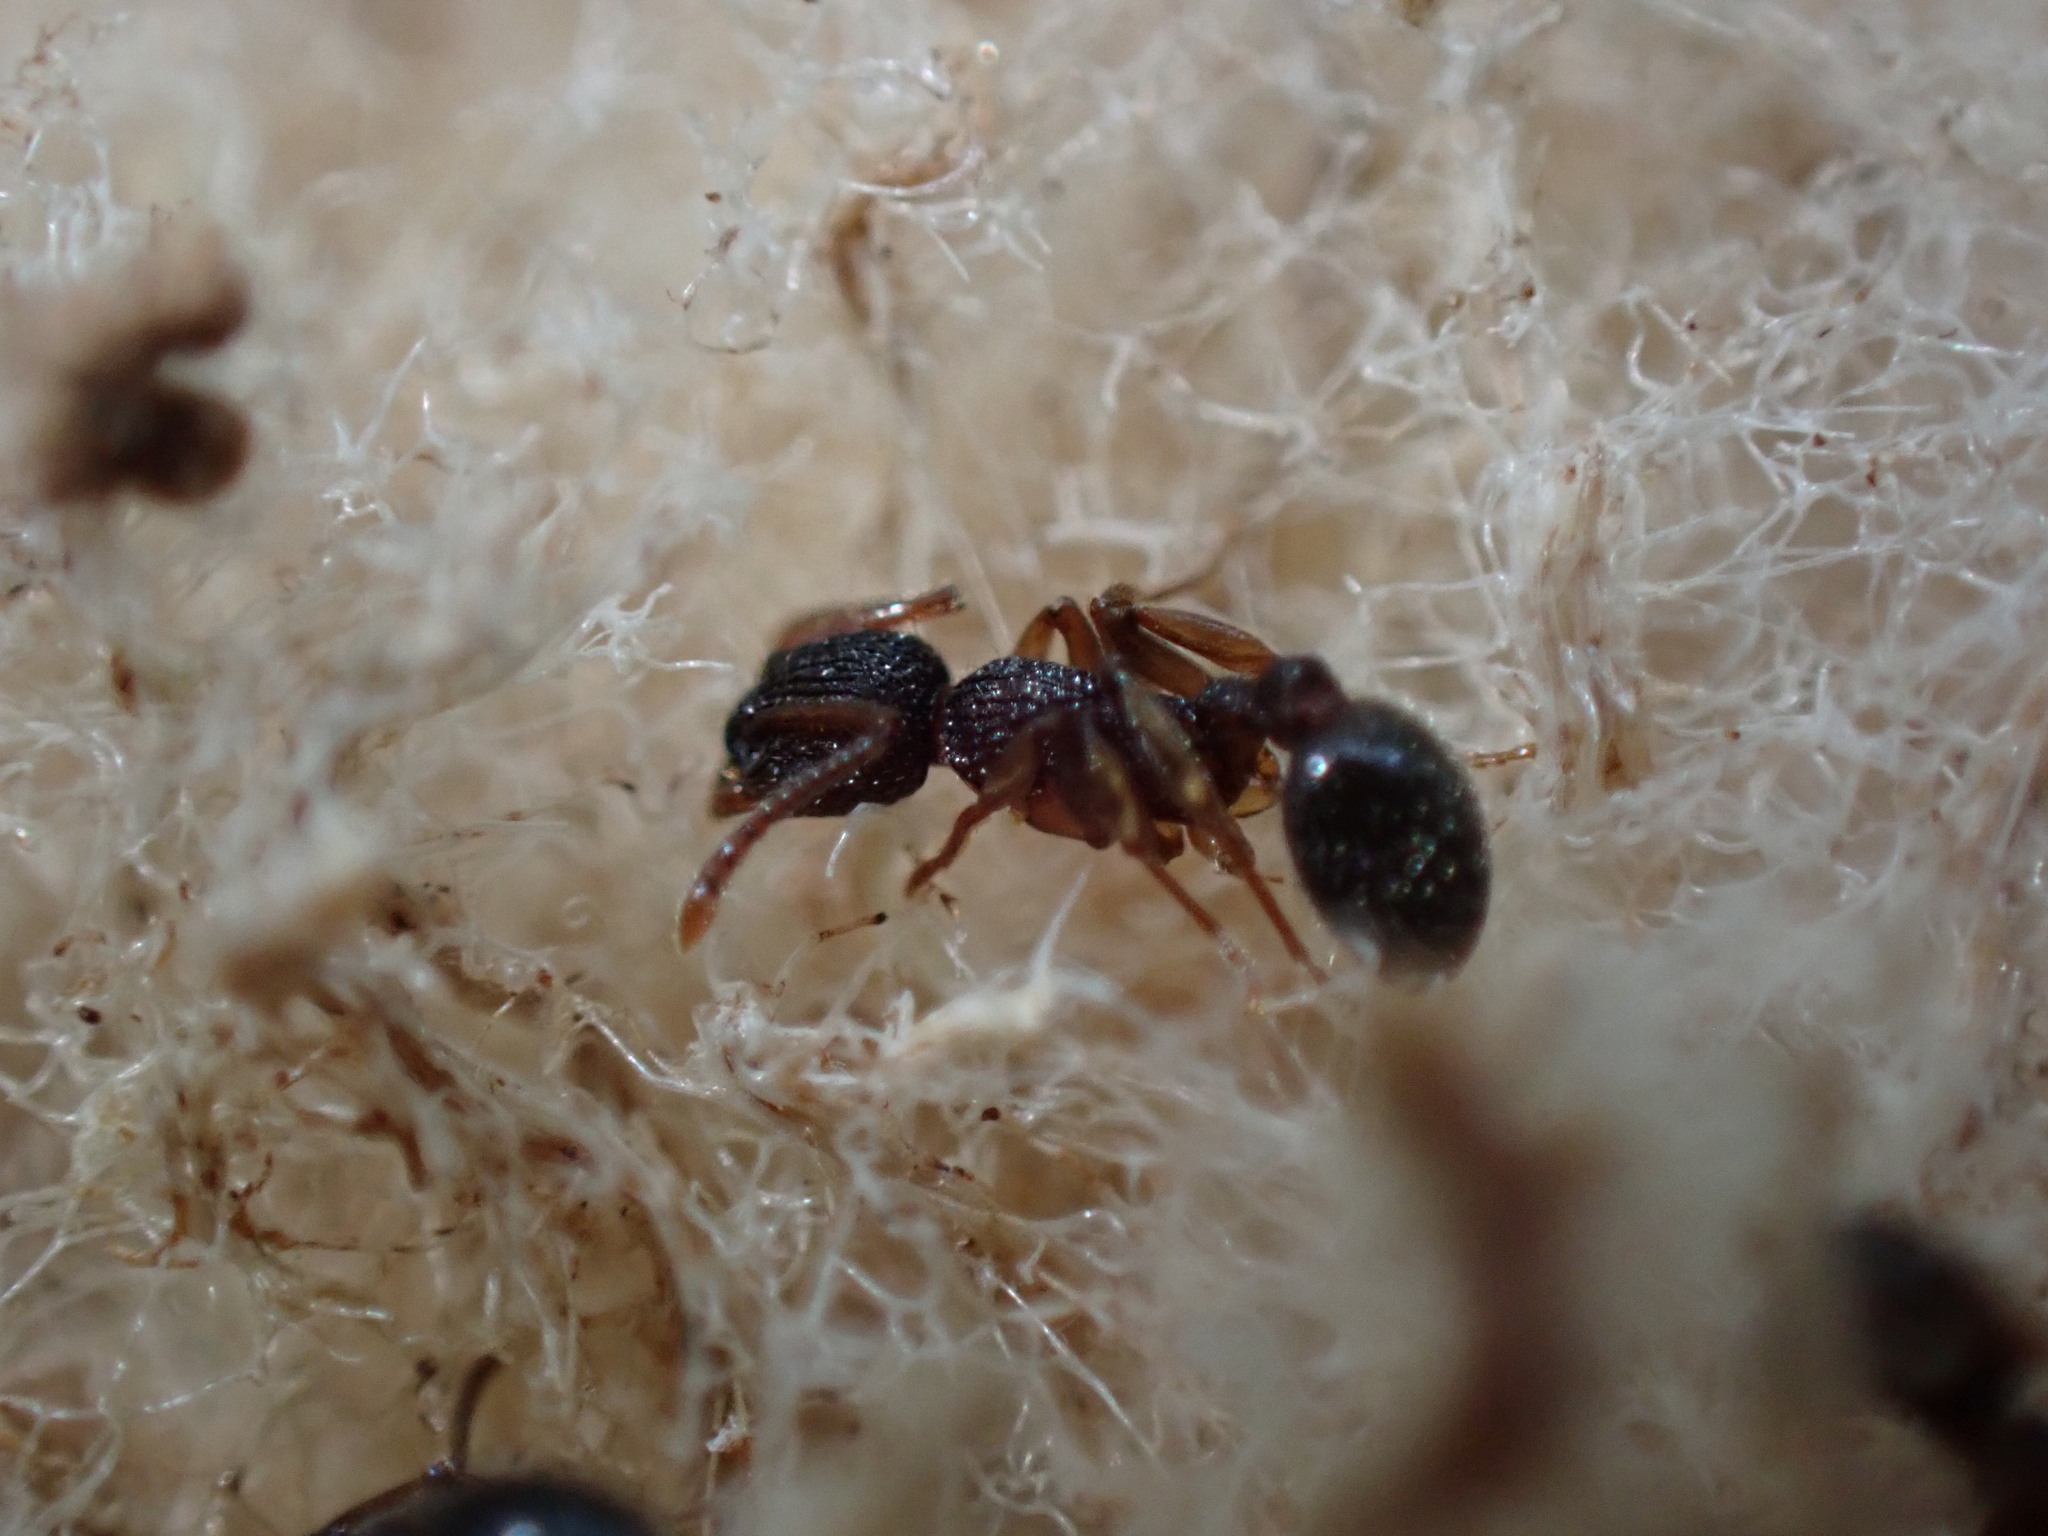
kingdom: Animalia
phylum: Arthropoda
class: Insecta
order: Hymenoptera
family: Formicidae
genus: Myrmica
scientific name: Myrmica
